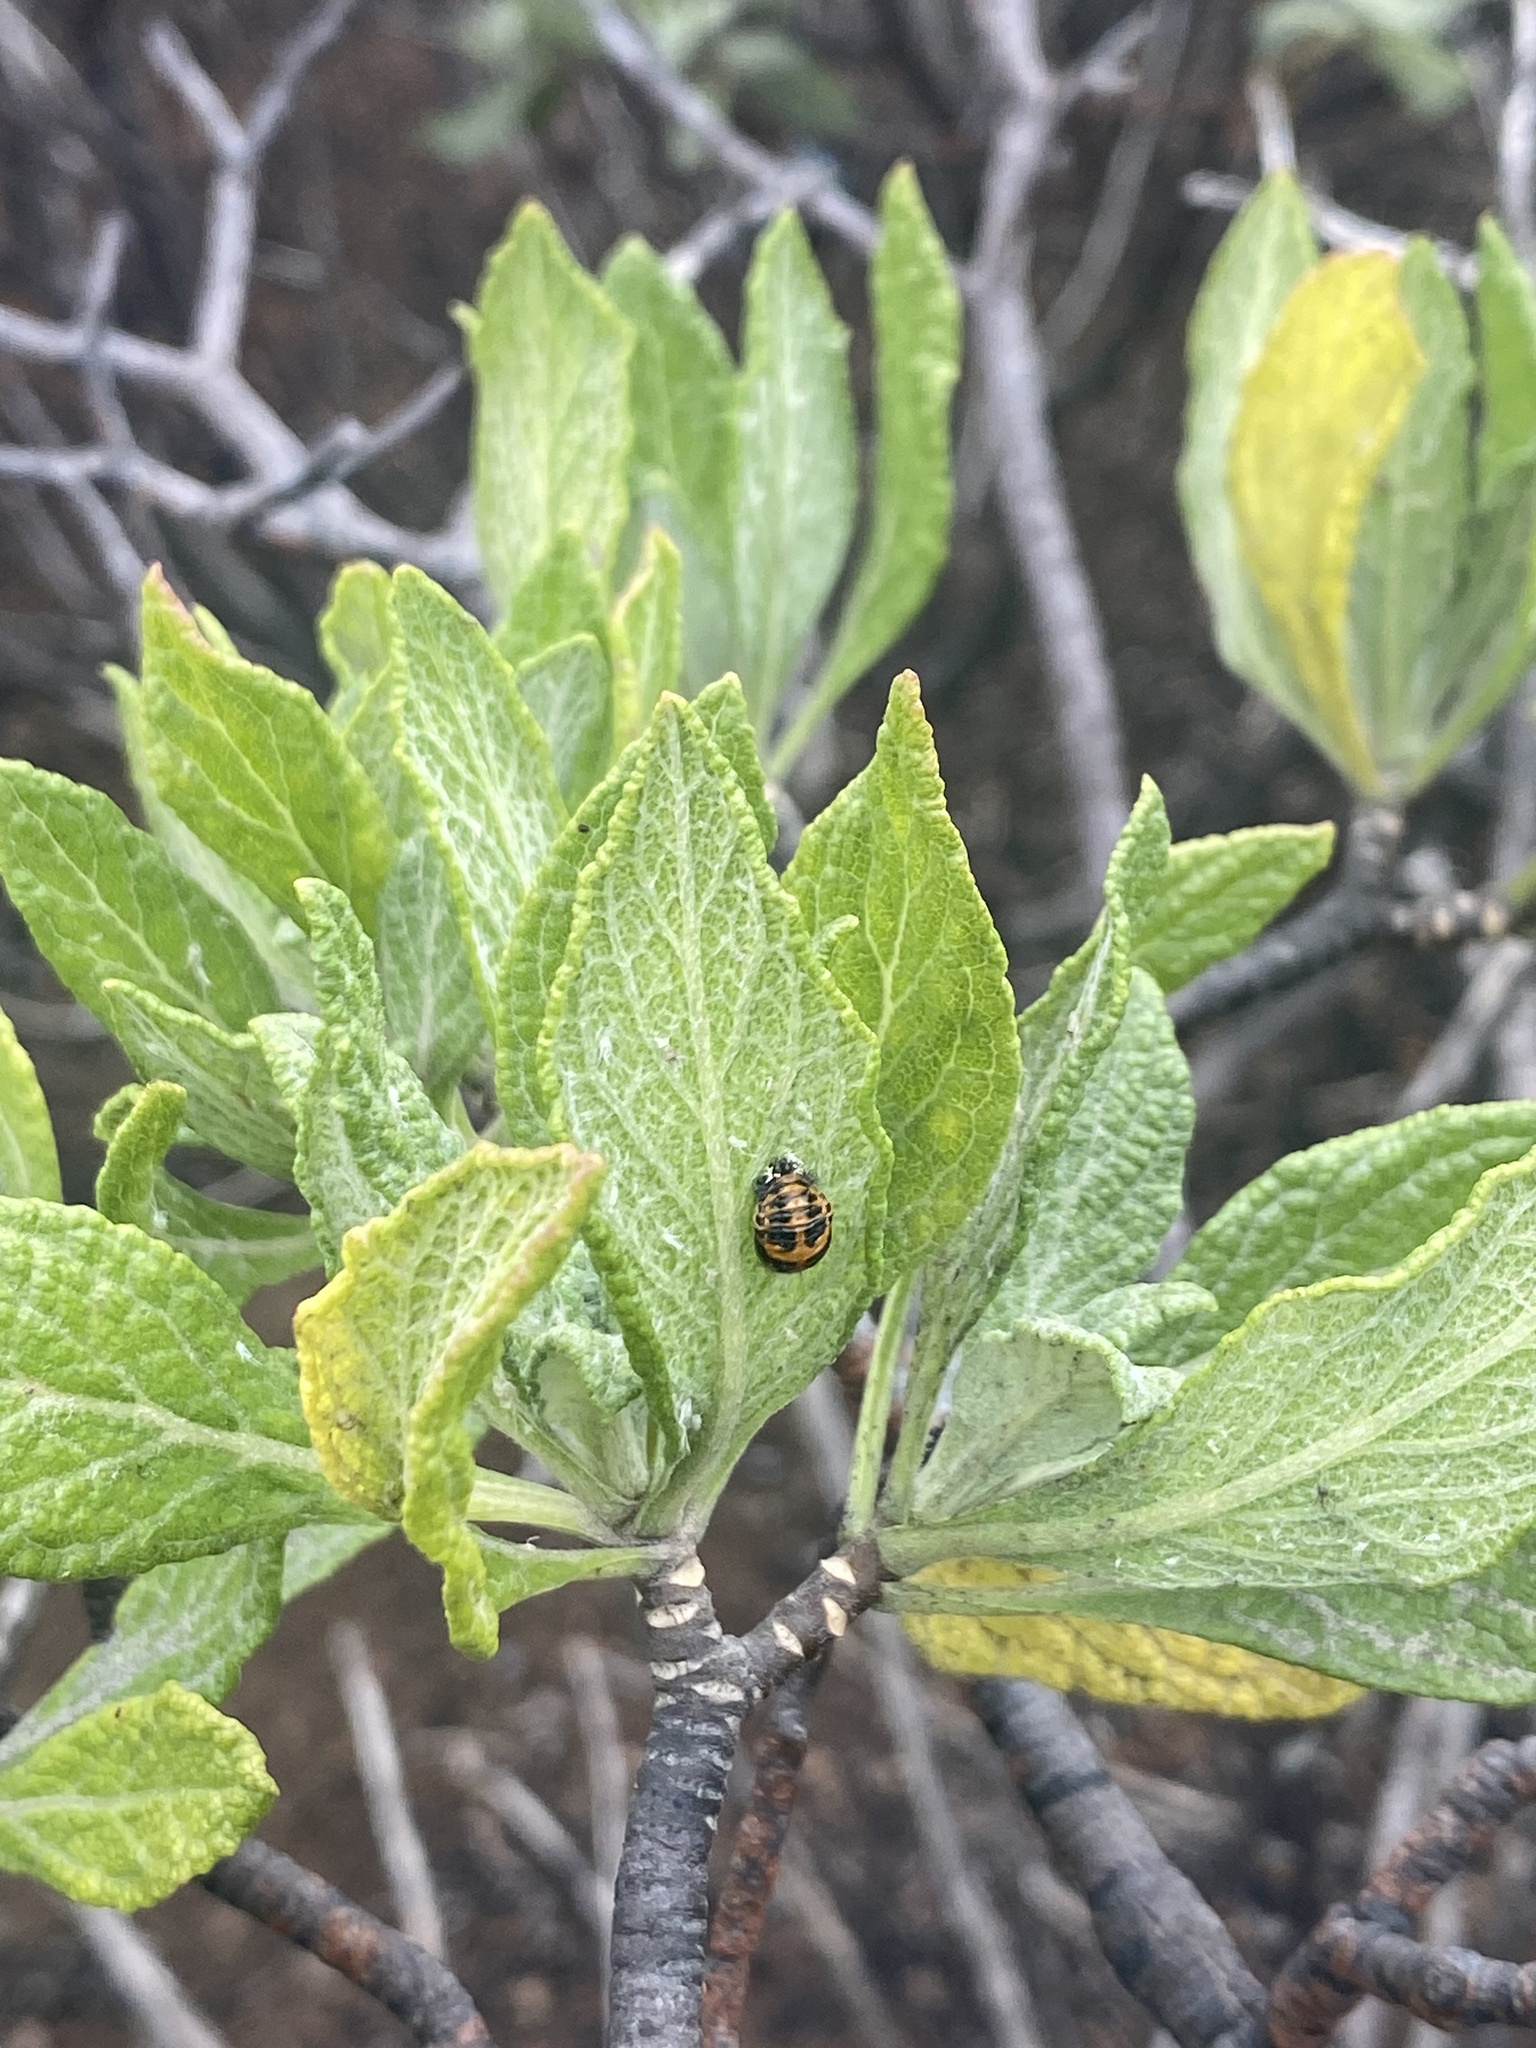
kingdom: Animalia
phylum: Arthropoda
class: Insecta
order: Coleoptera
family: Coccinellidae
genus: Harmonia
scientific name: Harmonia axyridis
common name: Harlequin ladybird
